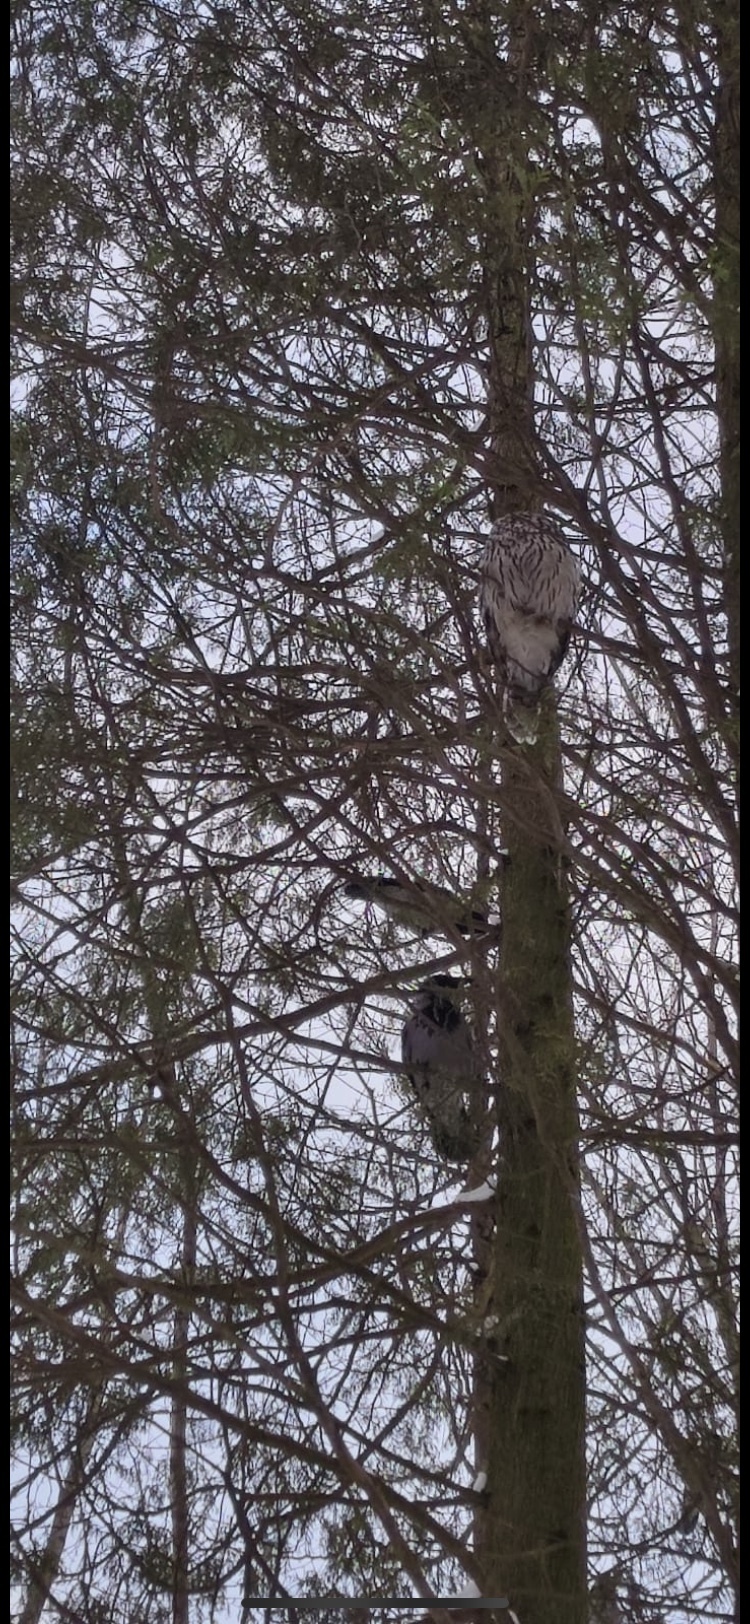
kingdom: Animalia
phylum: Chordata
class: Aves
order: Strigiformes
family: Strigidae
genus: Strix
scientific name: Strix uralensis
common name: Ural owl
